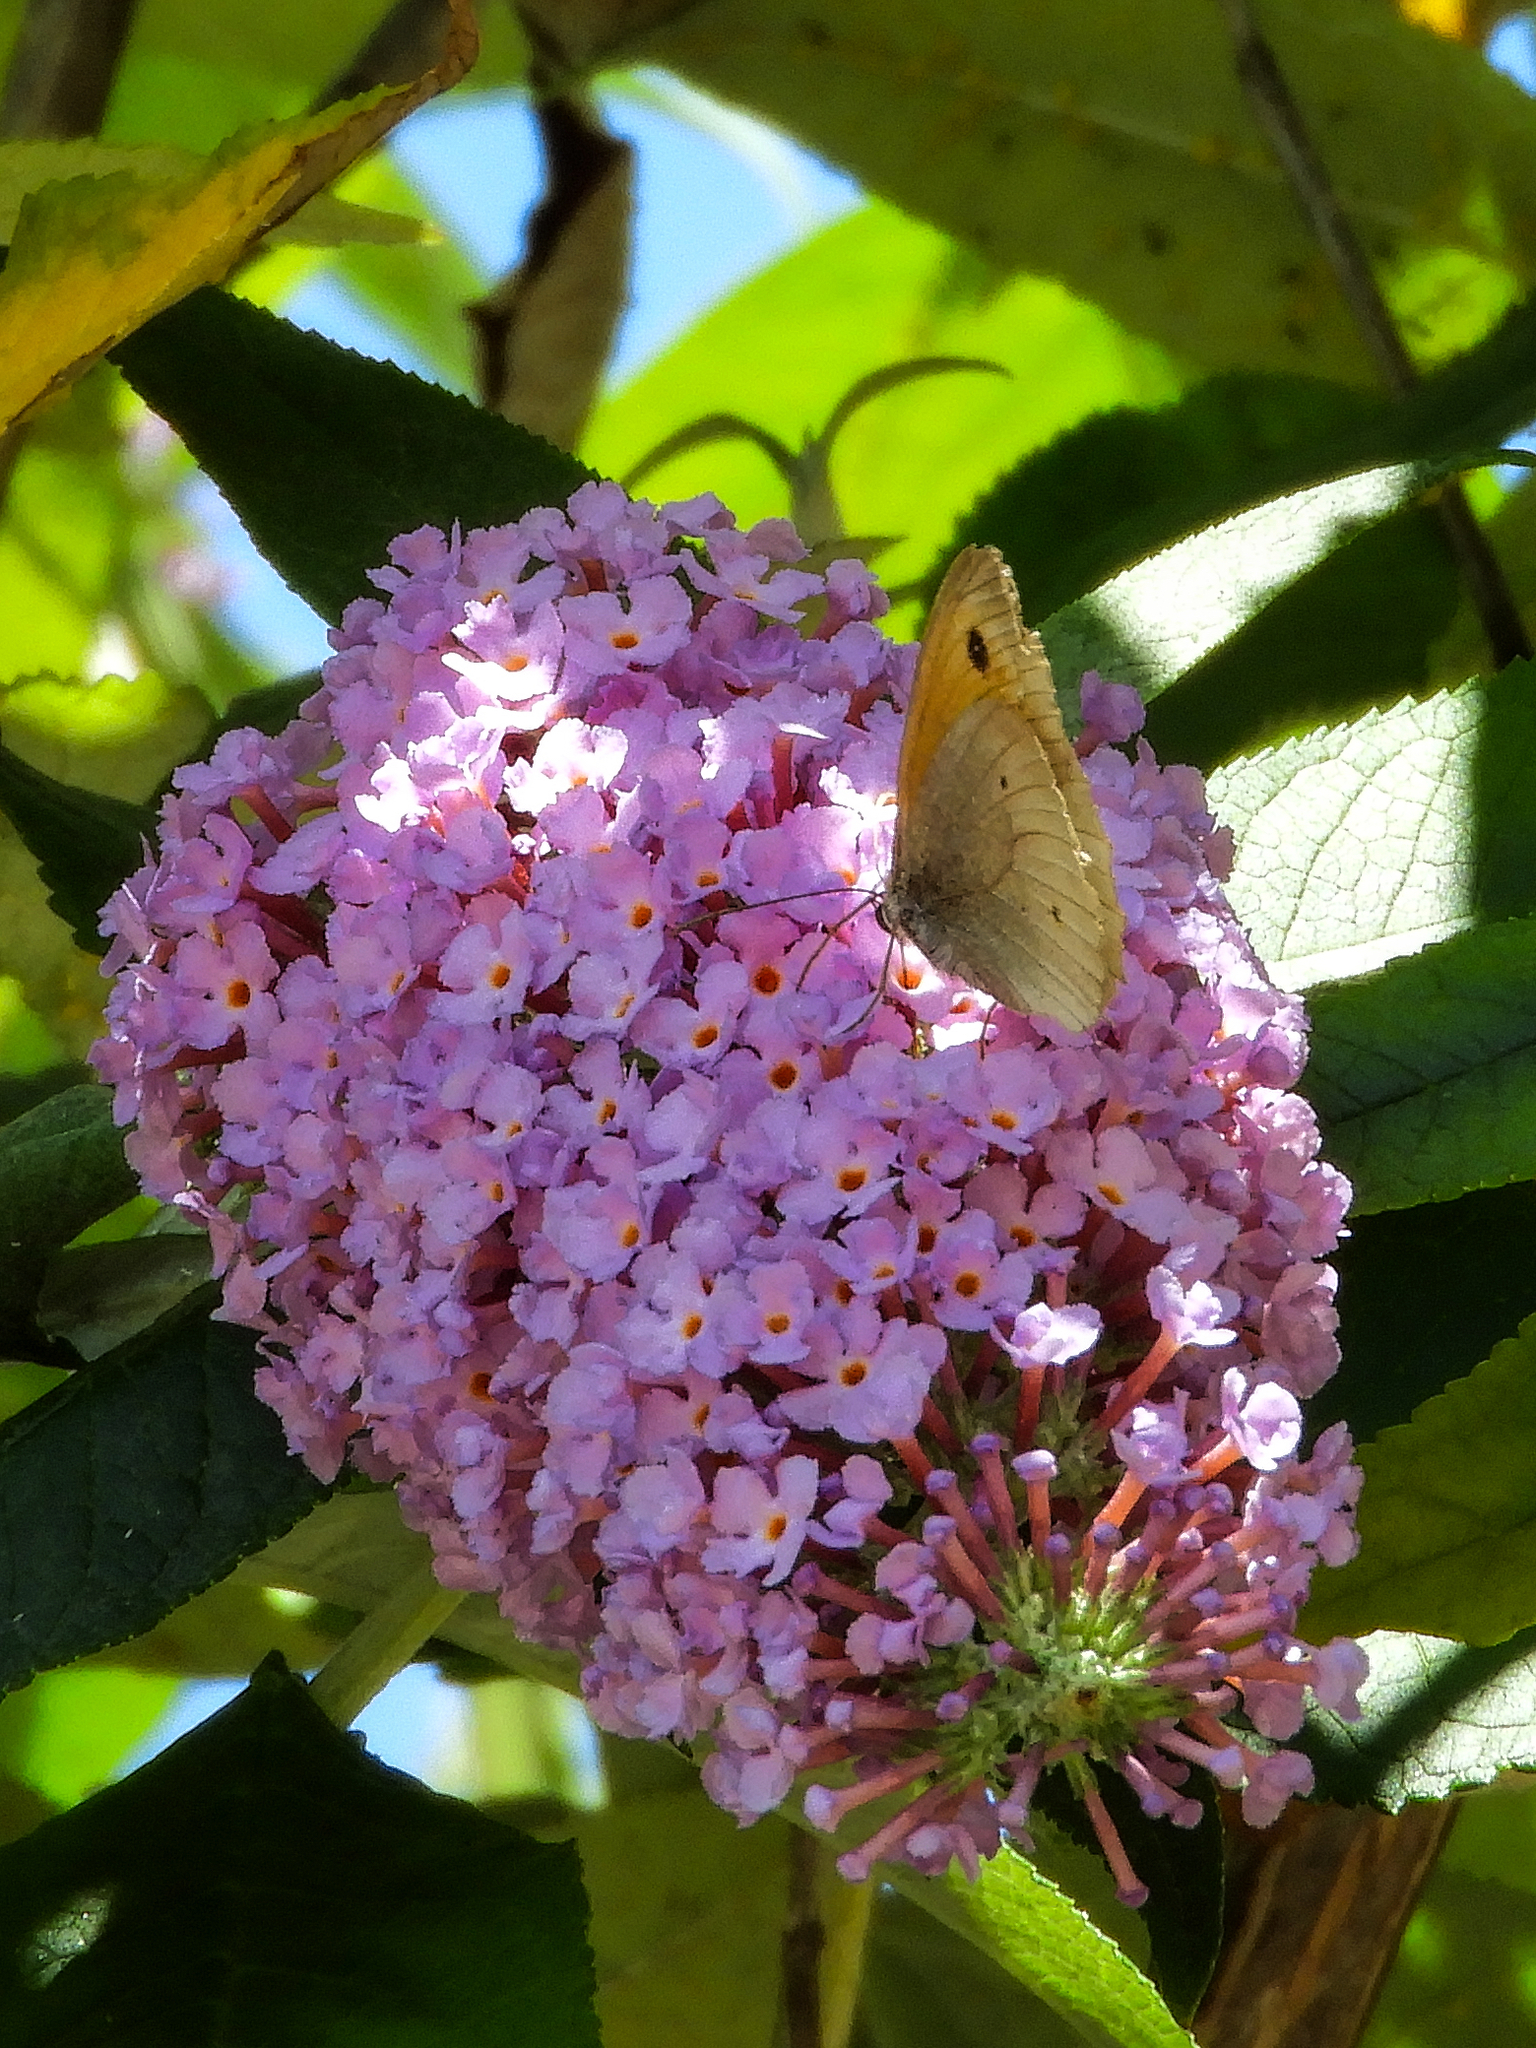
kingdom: Animalia
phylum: Arthropoda
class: Insecta
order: Lepidoptera
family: Nymphalidae
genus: Maniola
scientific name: Maniola jurtina
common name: Meadow brown
